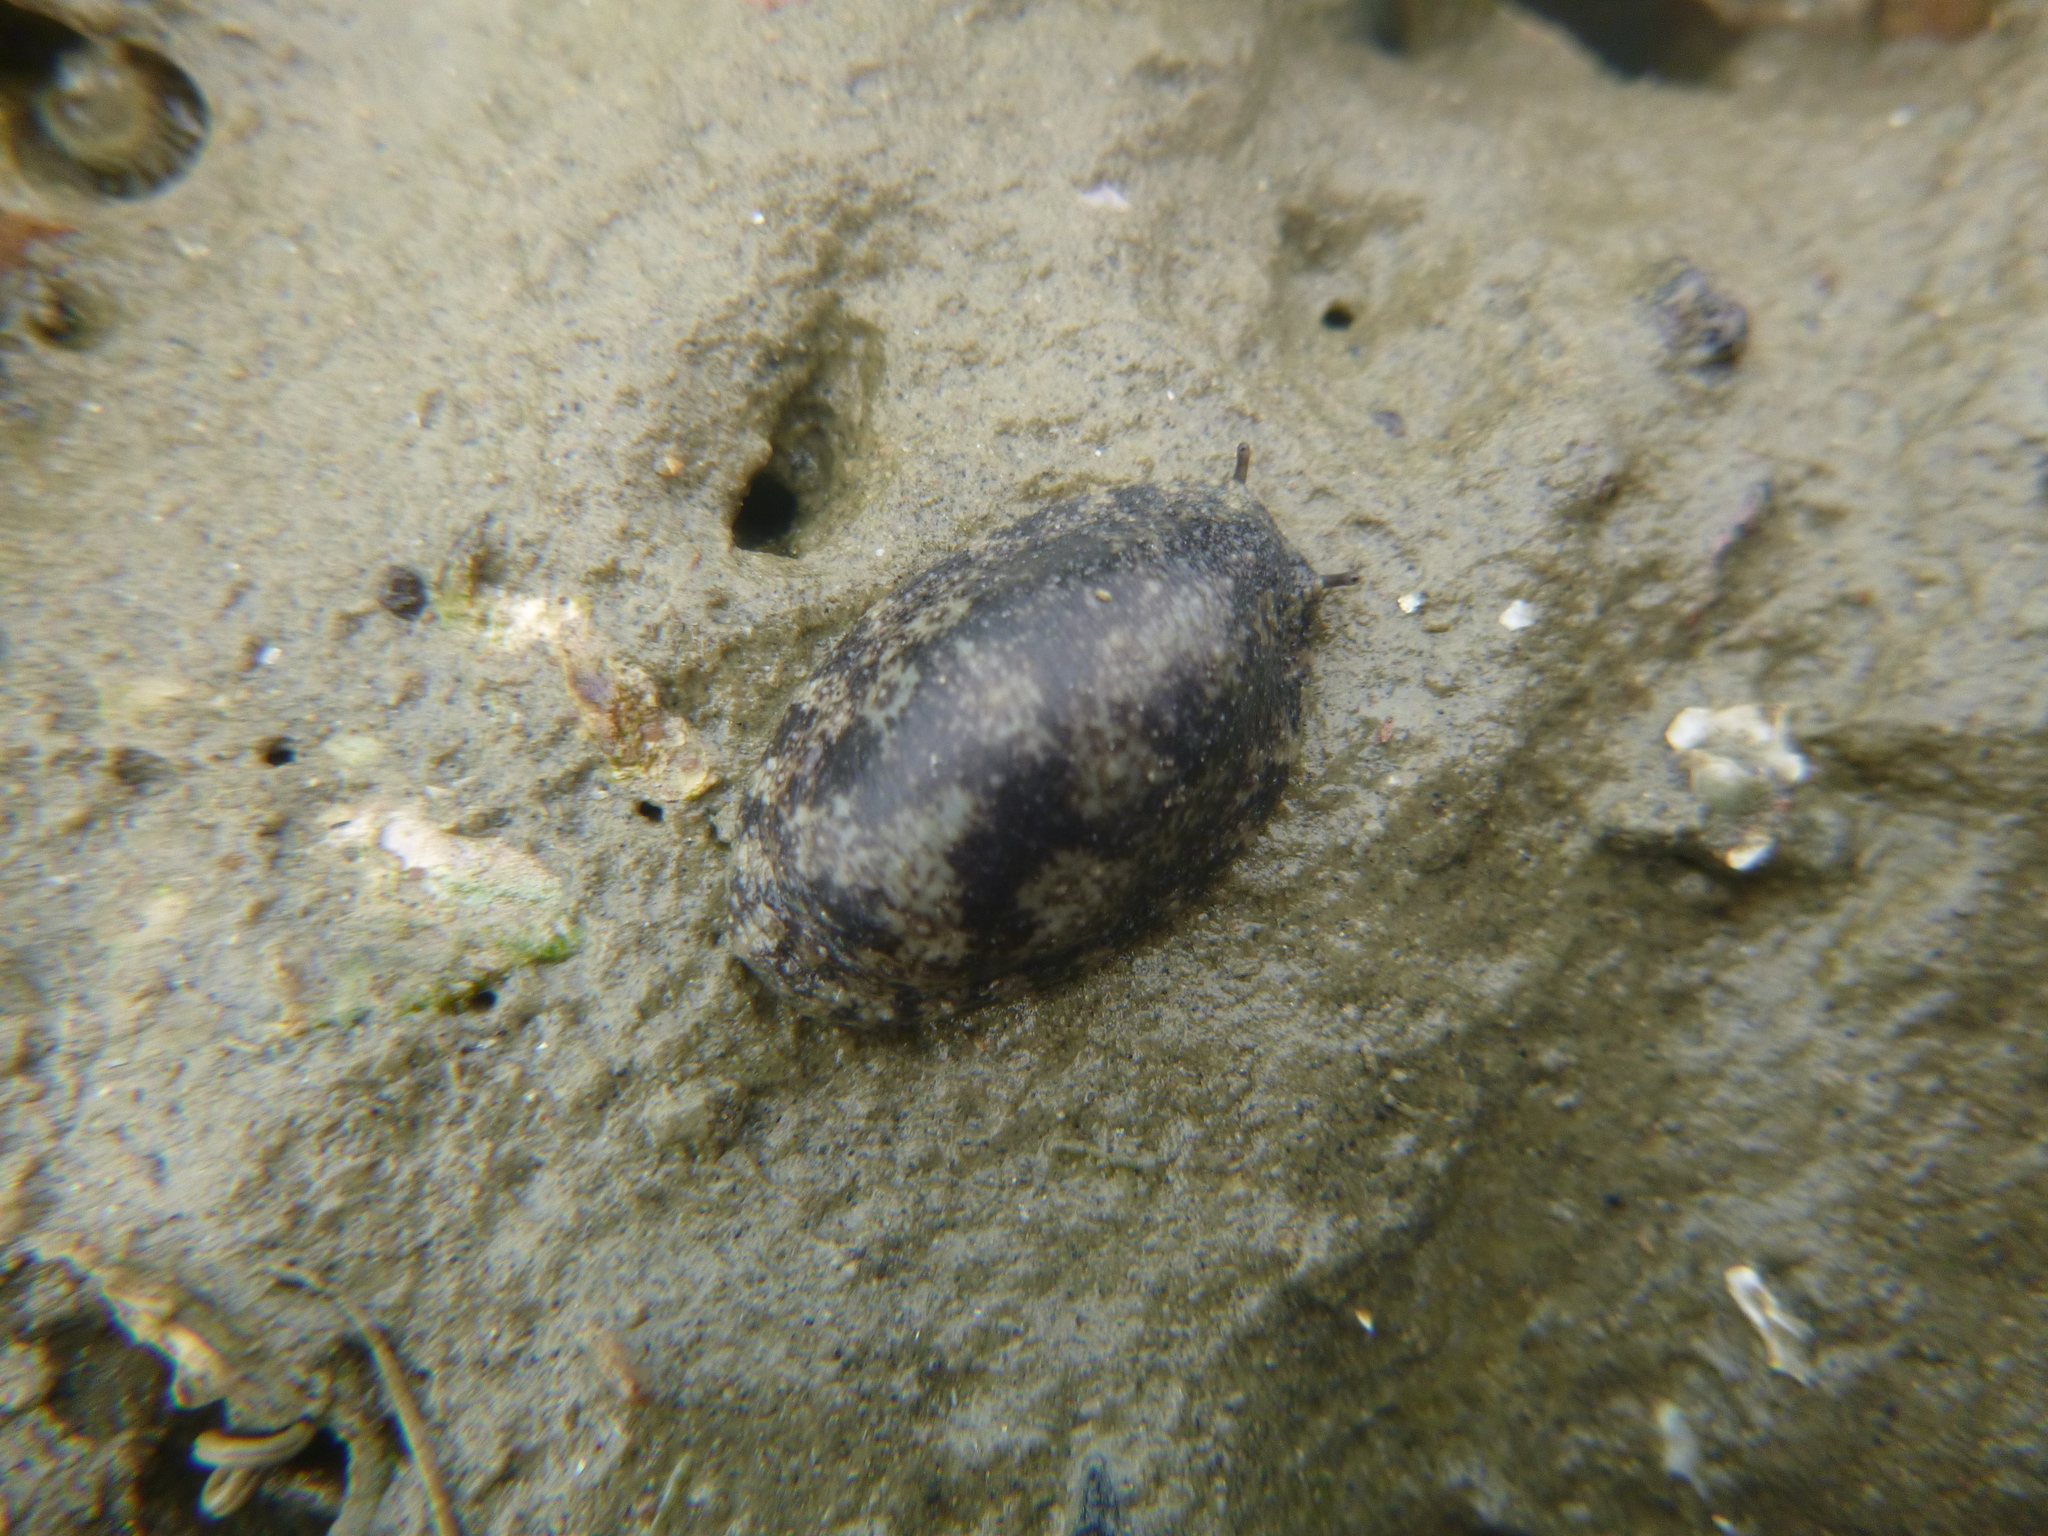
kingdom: Animalia
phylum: Mollusca
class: Gastropoda
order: Systellommatophora
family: Onchidiidae
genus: Onchidella
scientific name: Onchidella nigricans
